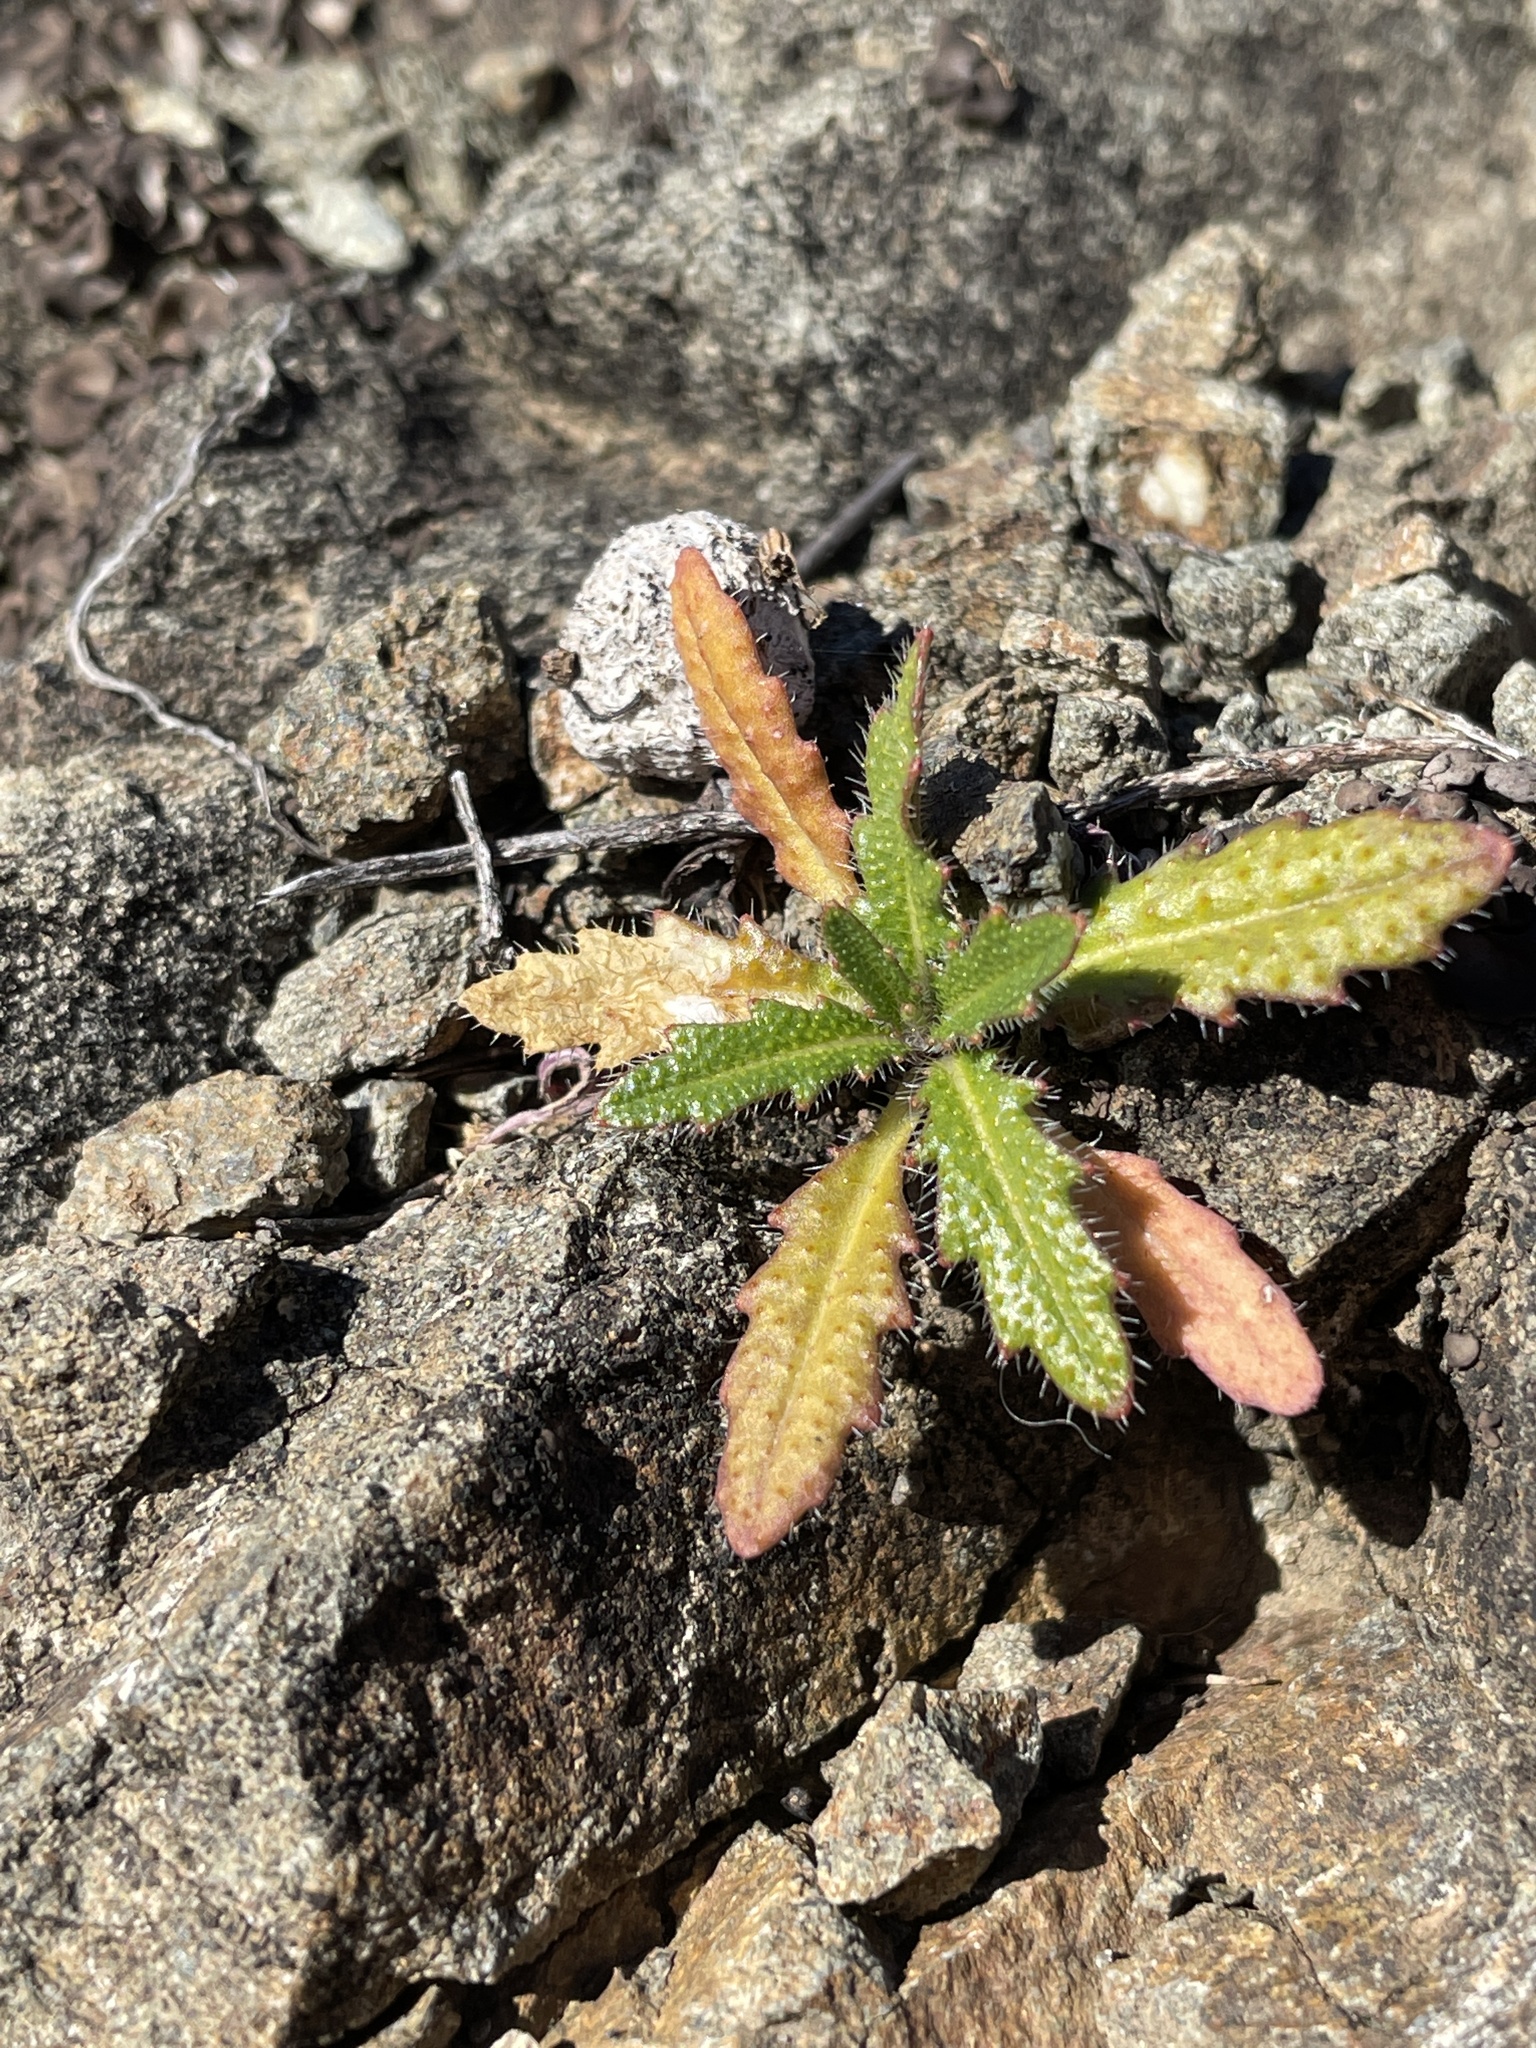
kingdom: Plantae
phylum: Tracheophyta
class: Magnoliopsida
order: Brassicales
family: Brassicaceae
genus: Streptanthus
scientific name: Streptanthus glandulosus
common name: Jewel-flower
